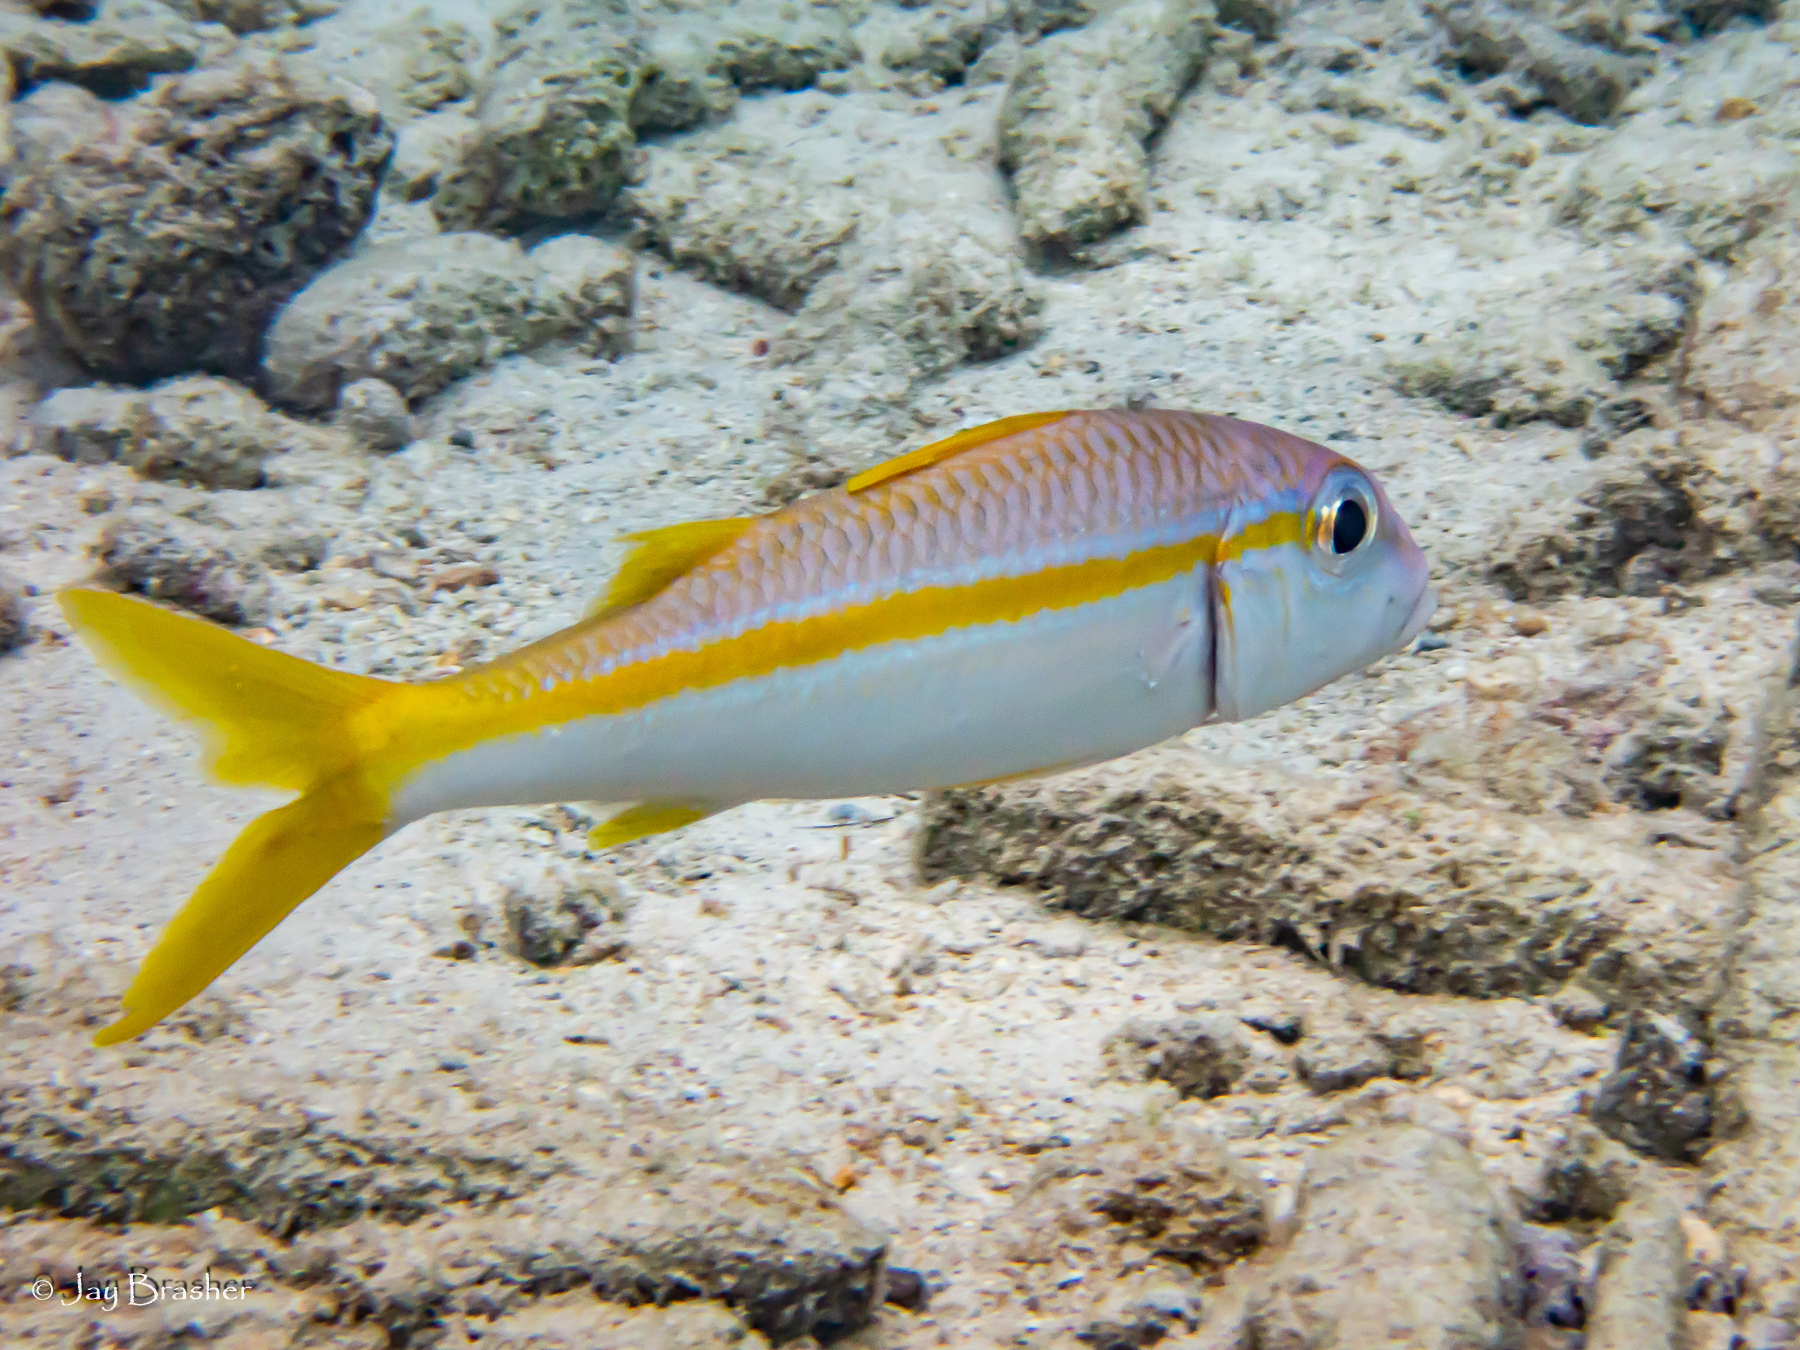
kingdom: Animalia
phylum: Chordata
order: Perciformes
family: Mullidae
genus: Mulloidichthys
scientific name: Mulloidichthys martinicus
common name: Yellow goatfish
